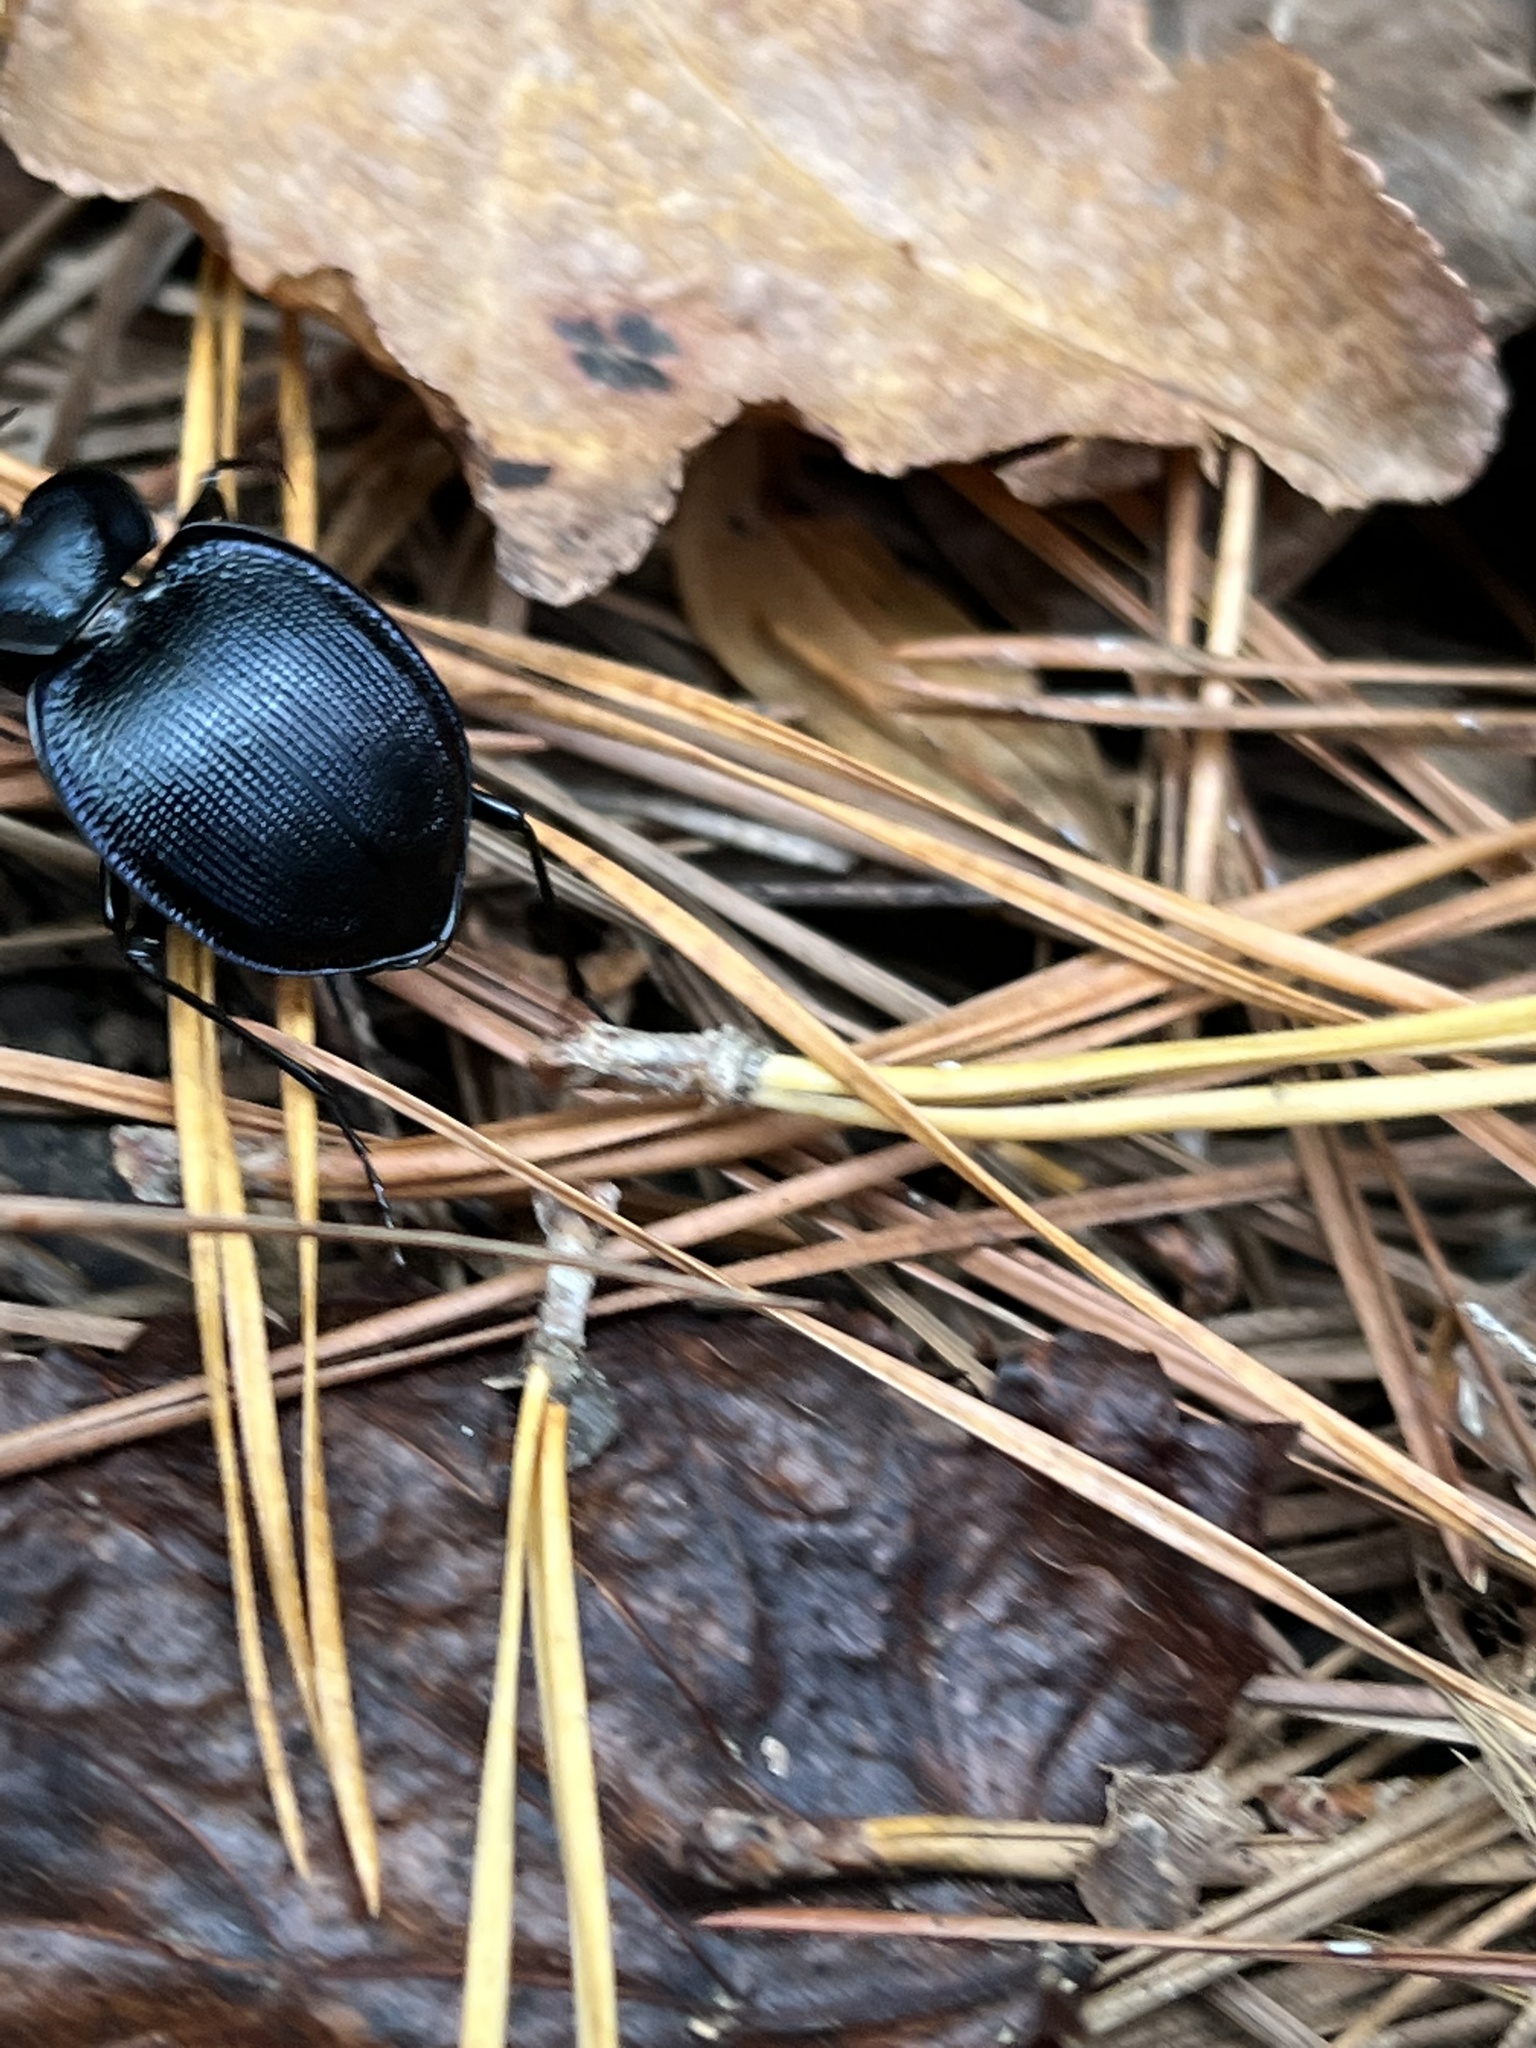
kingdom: Animalia
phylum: Arthropoda
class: Insecta
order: Coleoptera
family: Carabidae
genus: Scaphinotus
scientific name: Scaphinotus unicolor
